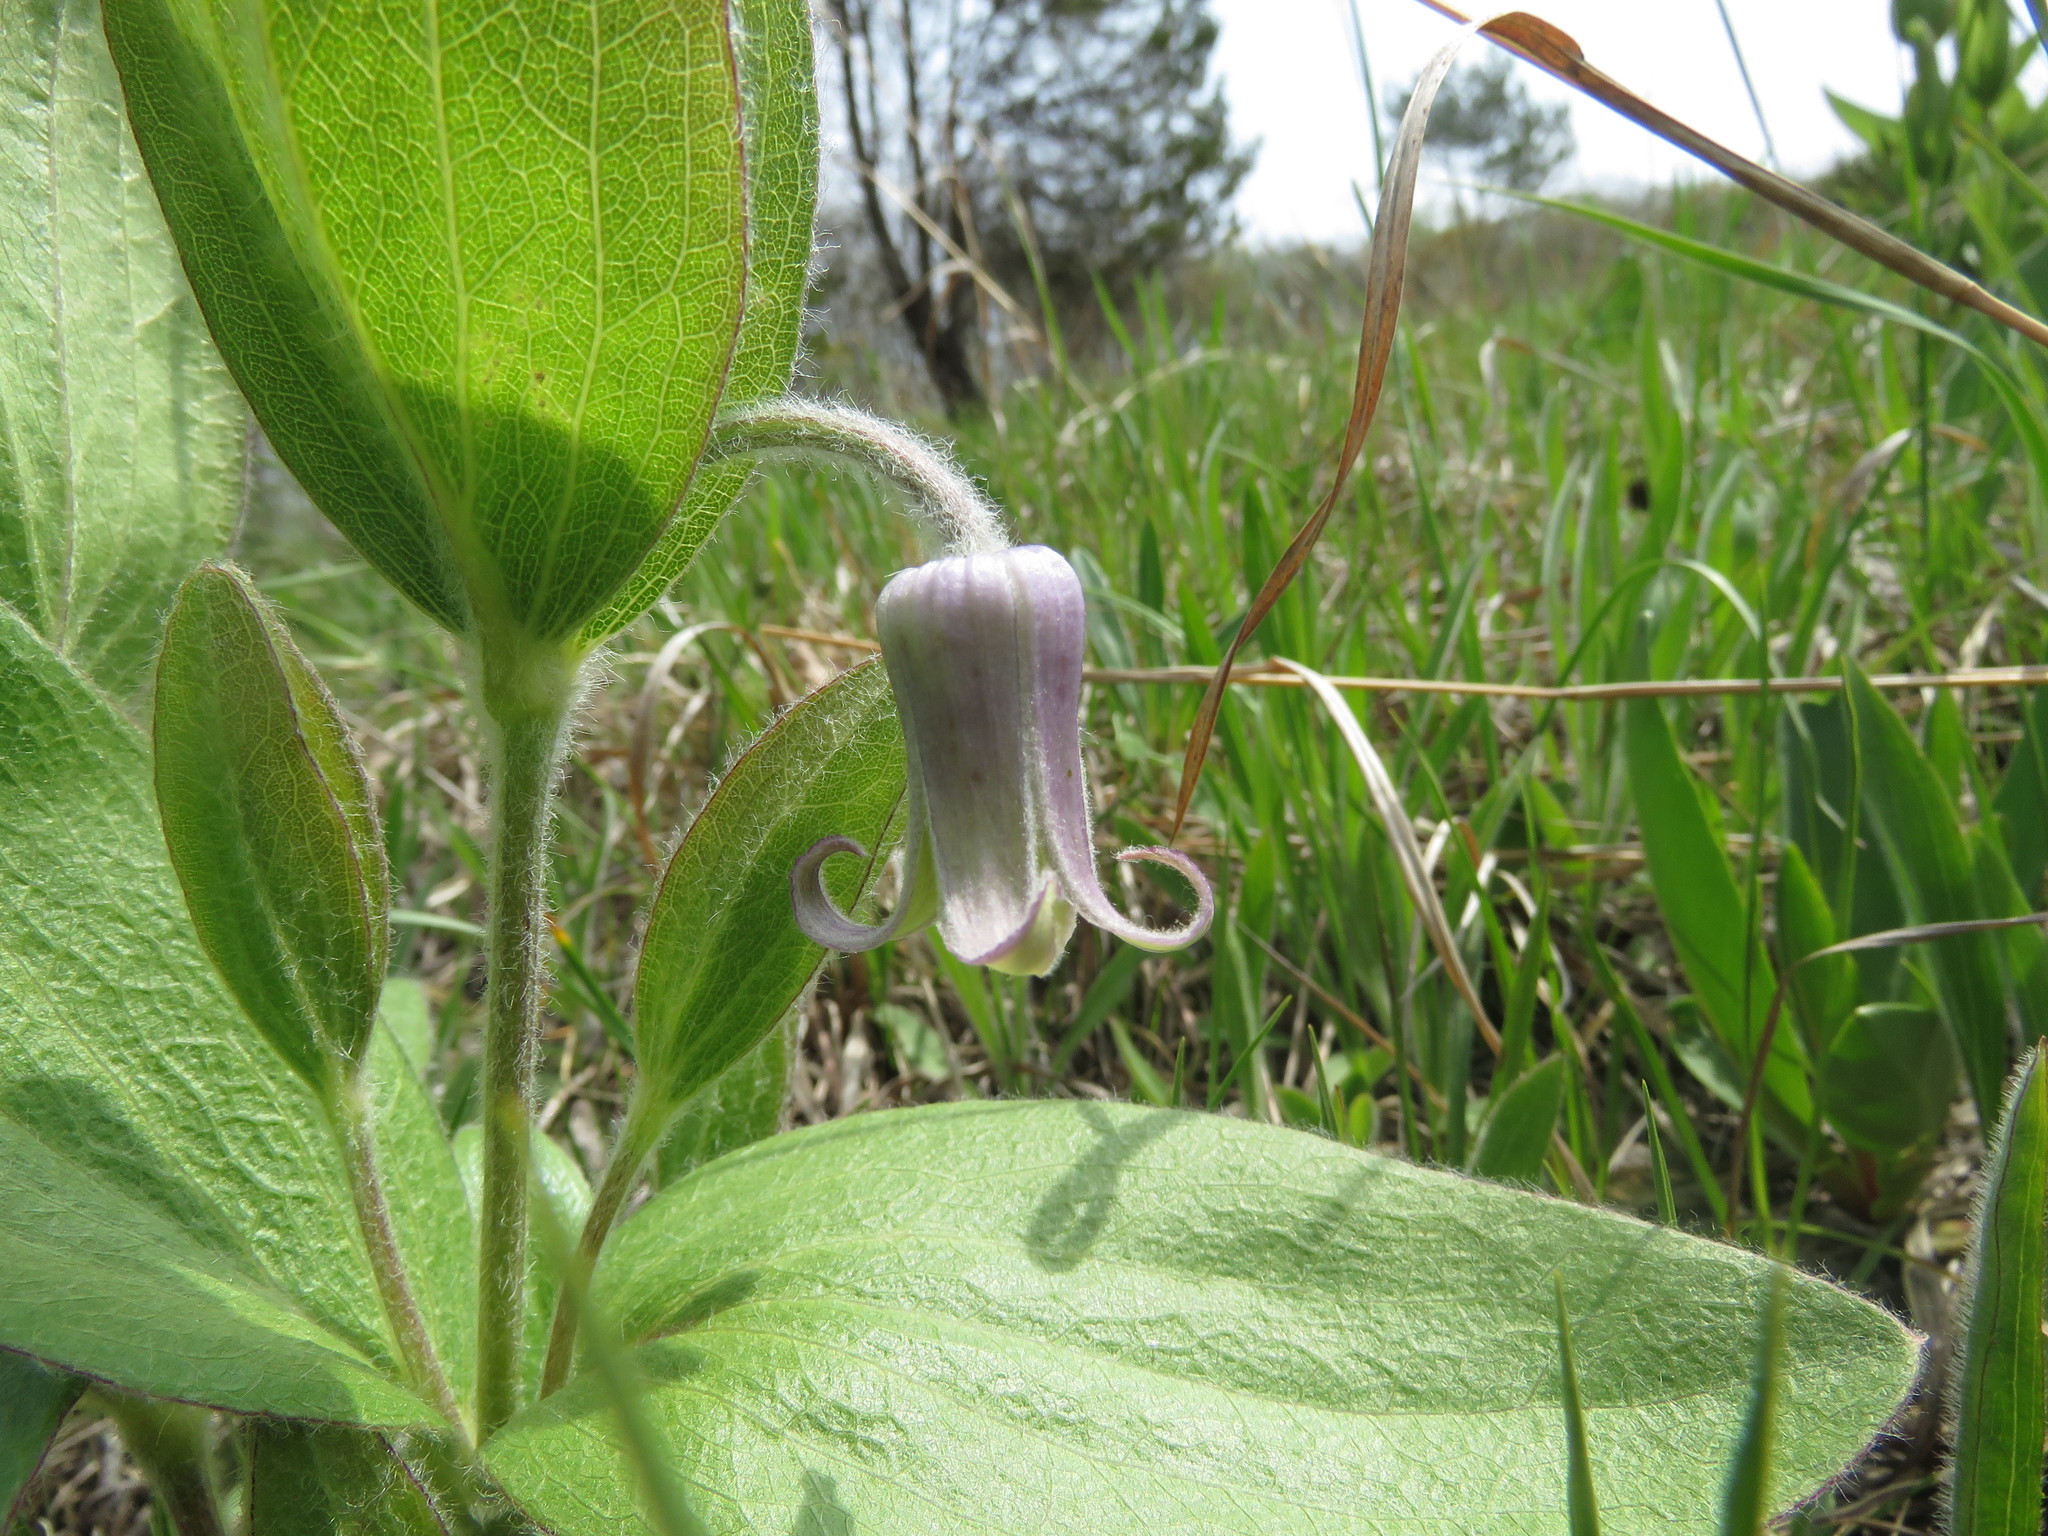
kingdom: Plantae
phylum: Tracheophyta
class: Magnoliopsida
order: Ranunculales
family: Ranunculaceae
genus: Clematis
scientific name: Clematis fremontii
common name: Fremont's clematis
